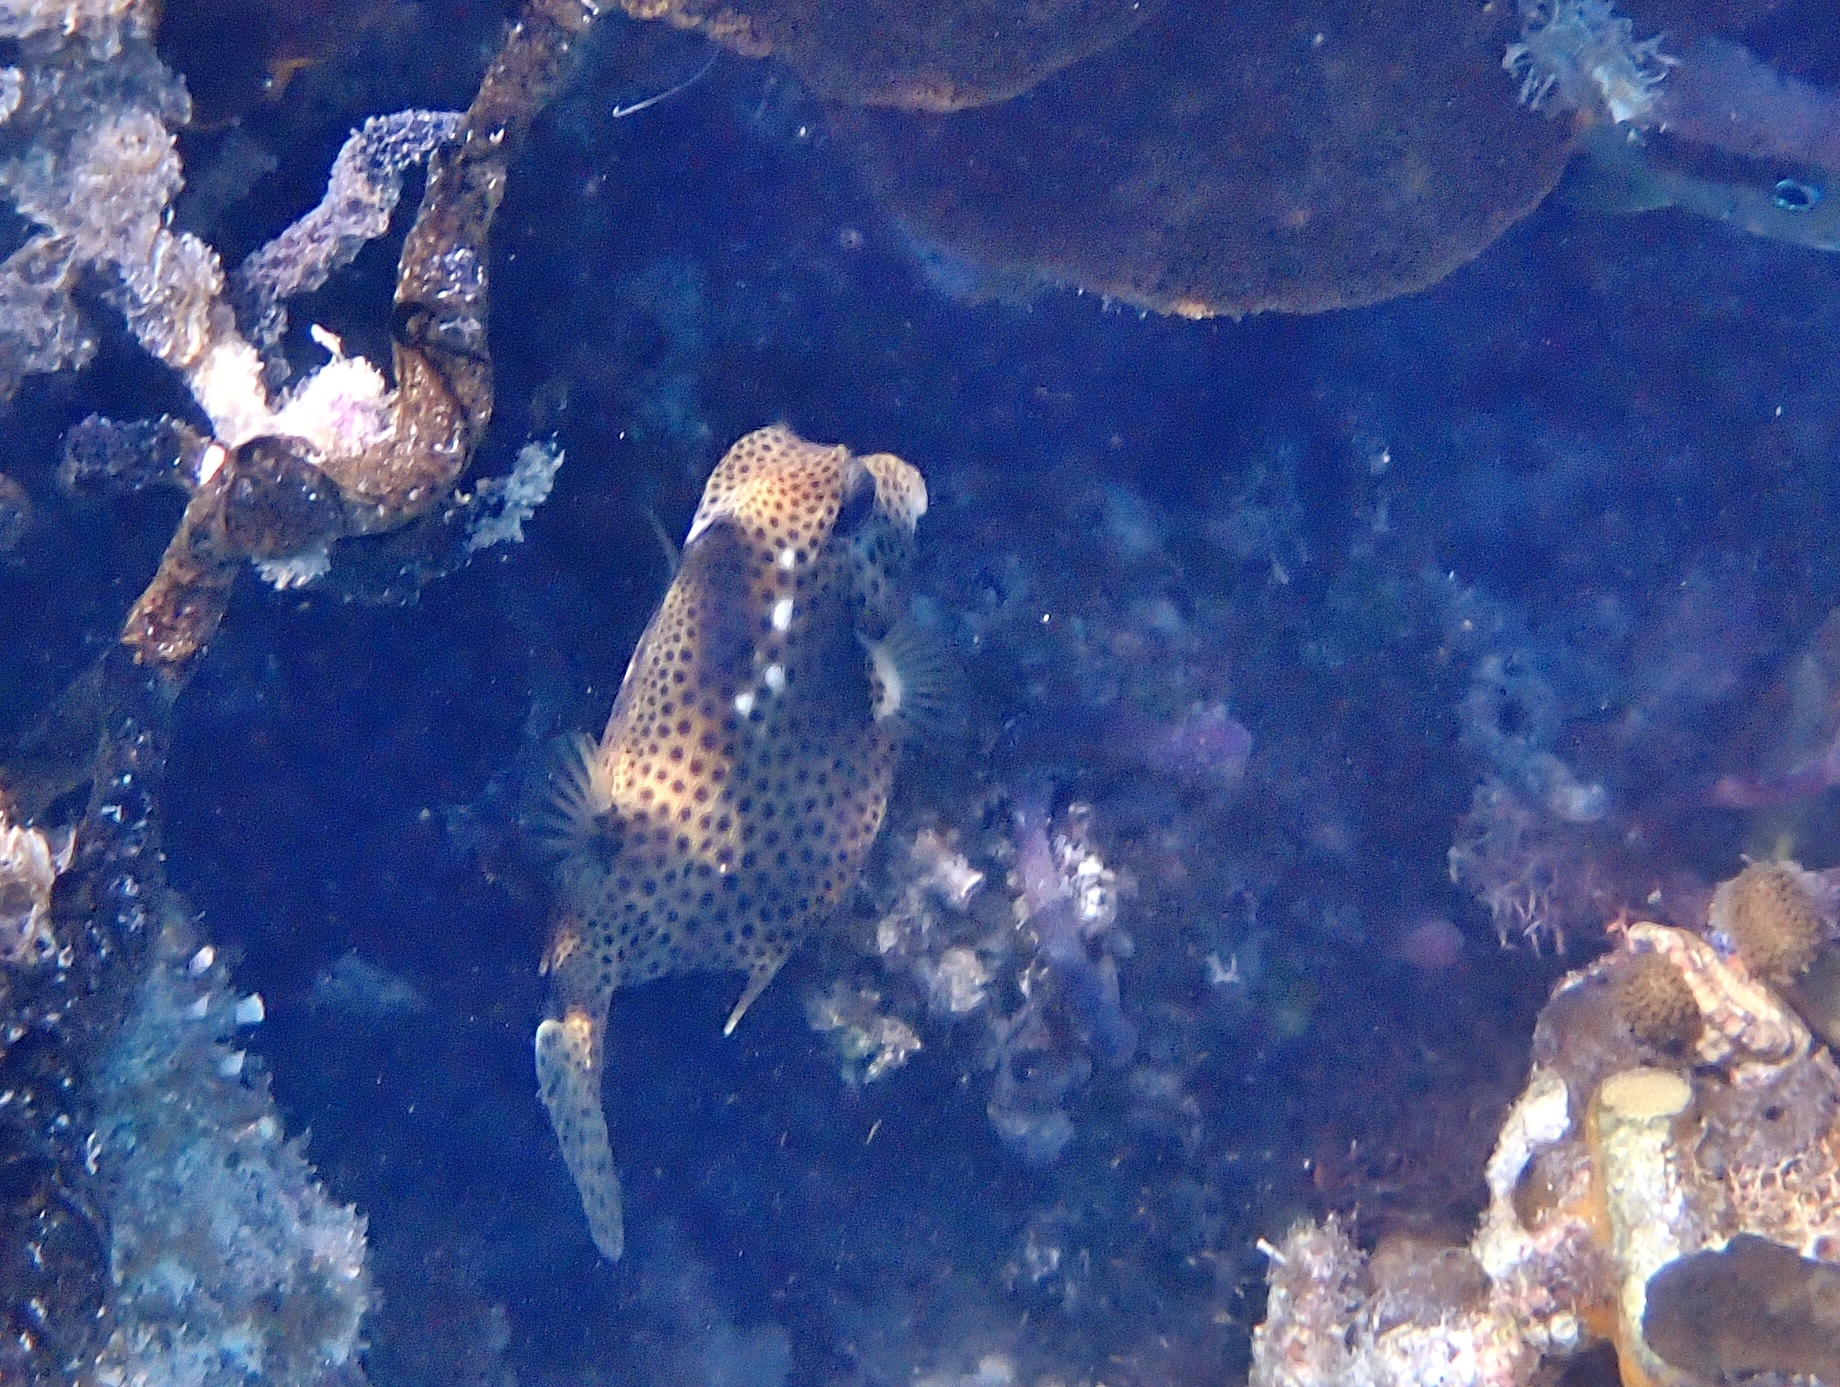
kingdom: Animalia
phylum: Chordata
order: Tetraodontiformes
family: Ostraciidae
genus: Lactophrys
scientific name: Lactophrys bicaudalis
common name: Spotted trunkfish
